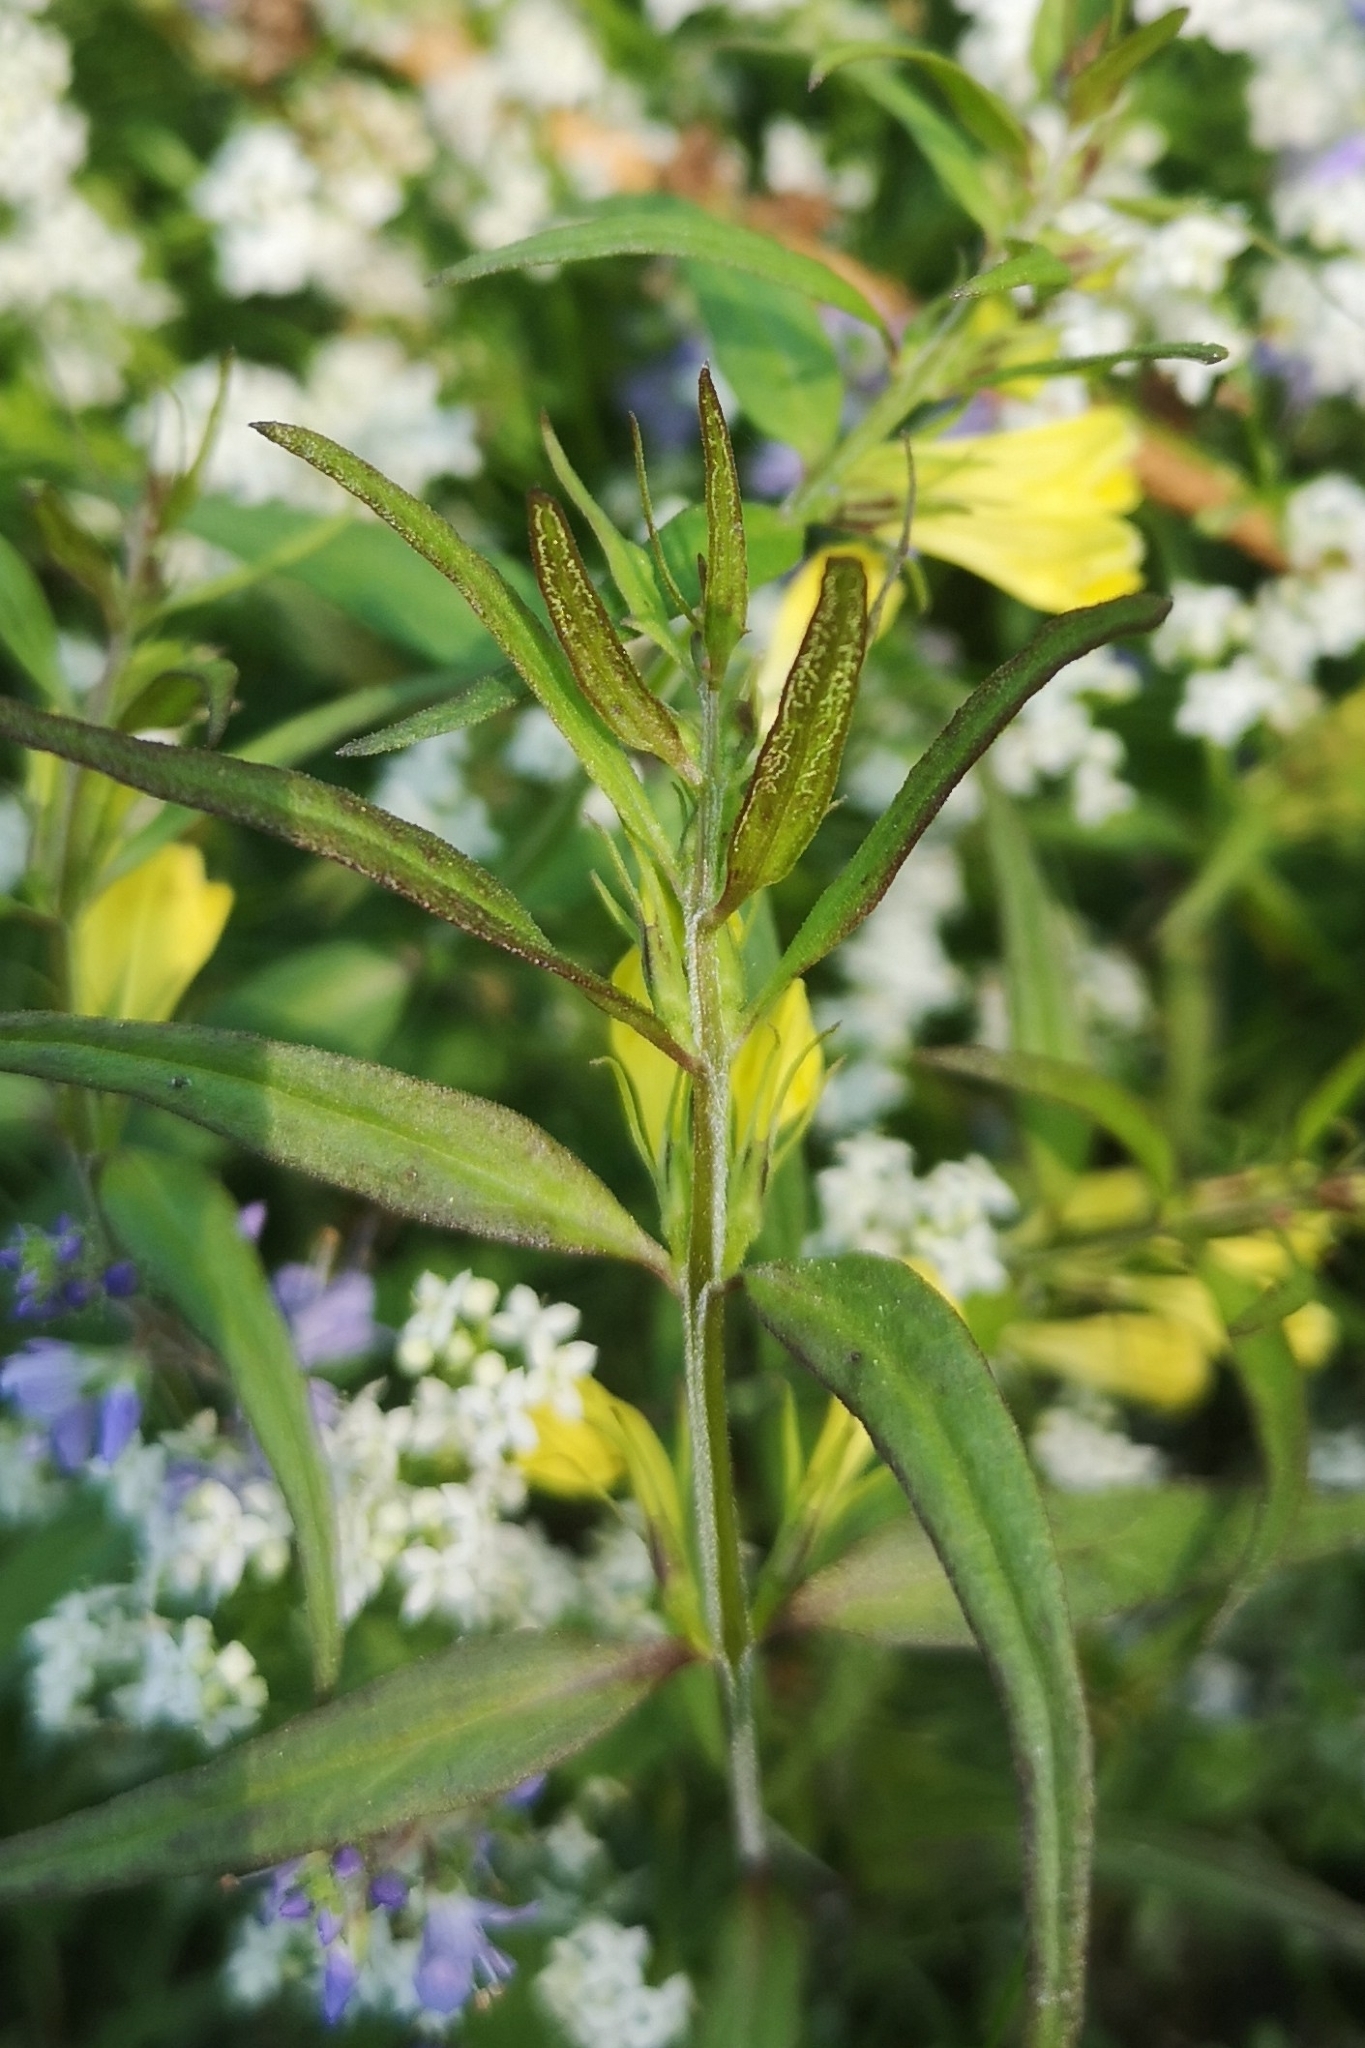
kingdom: Plantae
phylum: Tracheophyta
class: Magnoliopsida
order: Lamiales
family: Orobanchaceae
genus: Melampyrum
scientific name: Melampyrum pratense
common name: Common cow-wheat
